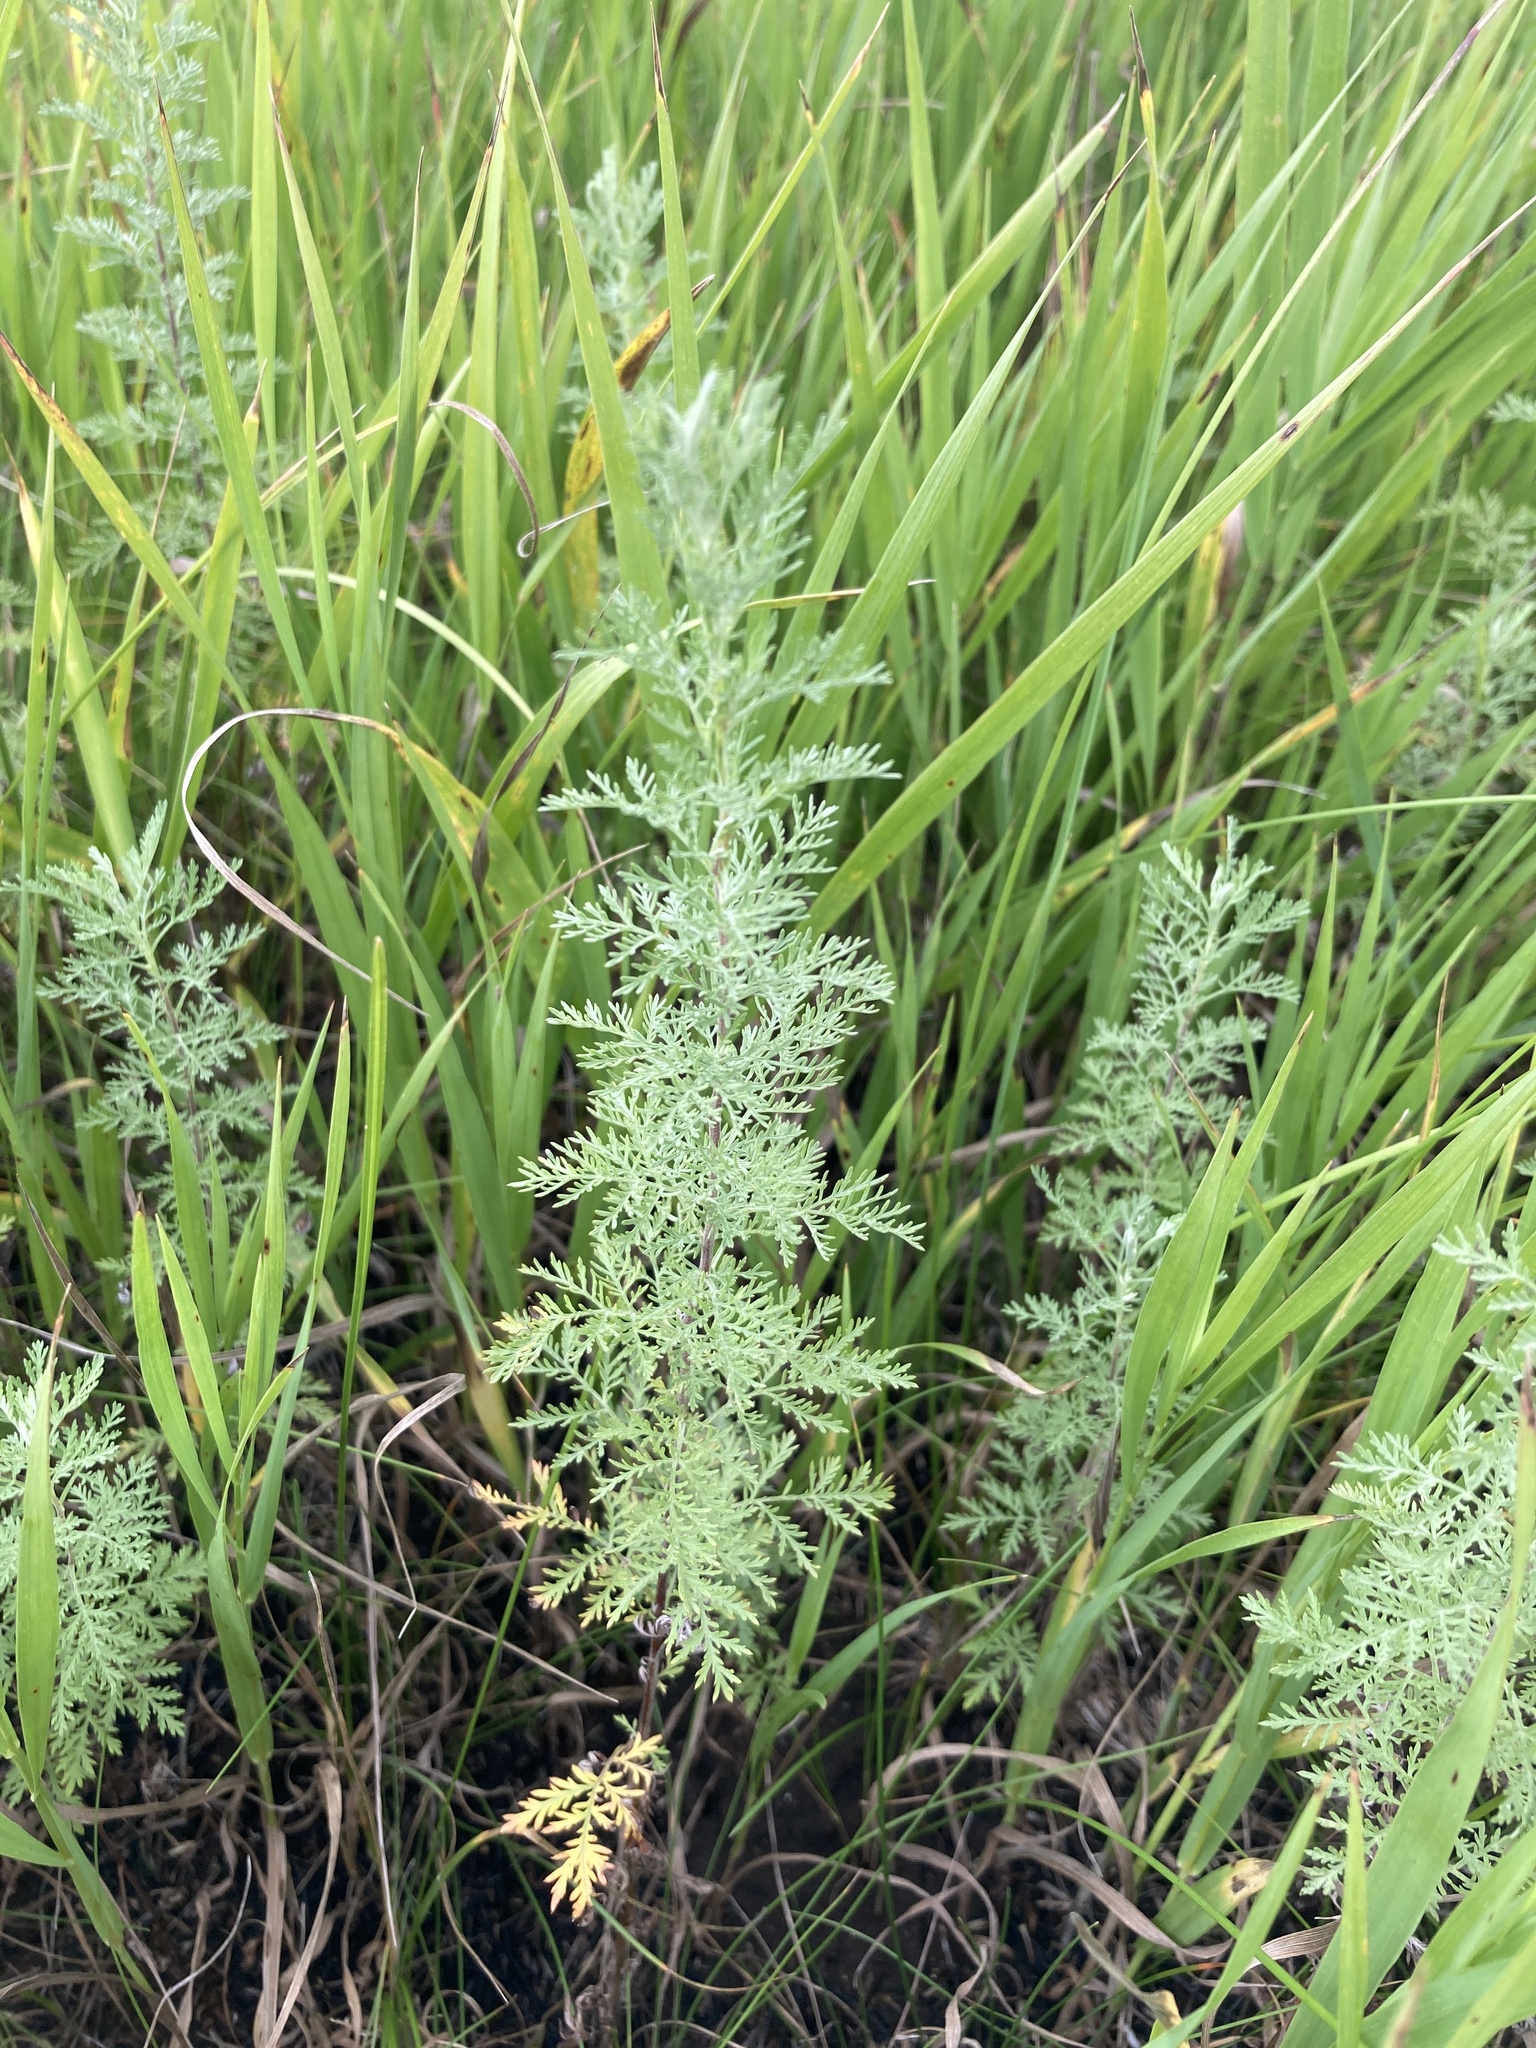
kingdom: Plantae
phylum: Tracheophyta
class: Magnoliopsida
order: Asterales
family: Asteraceae
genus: Artemisia
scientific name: Artemisia pontica
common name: Roman wormwood
